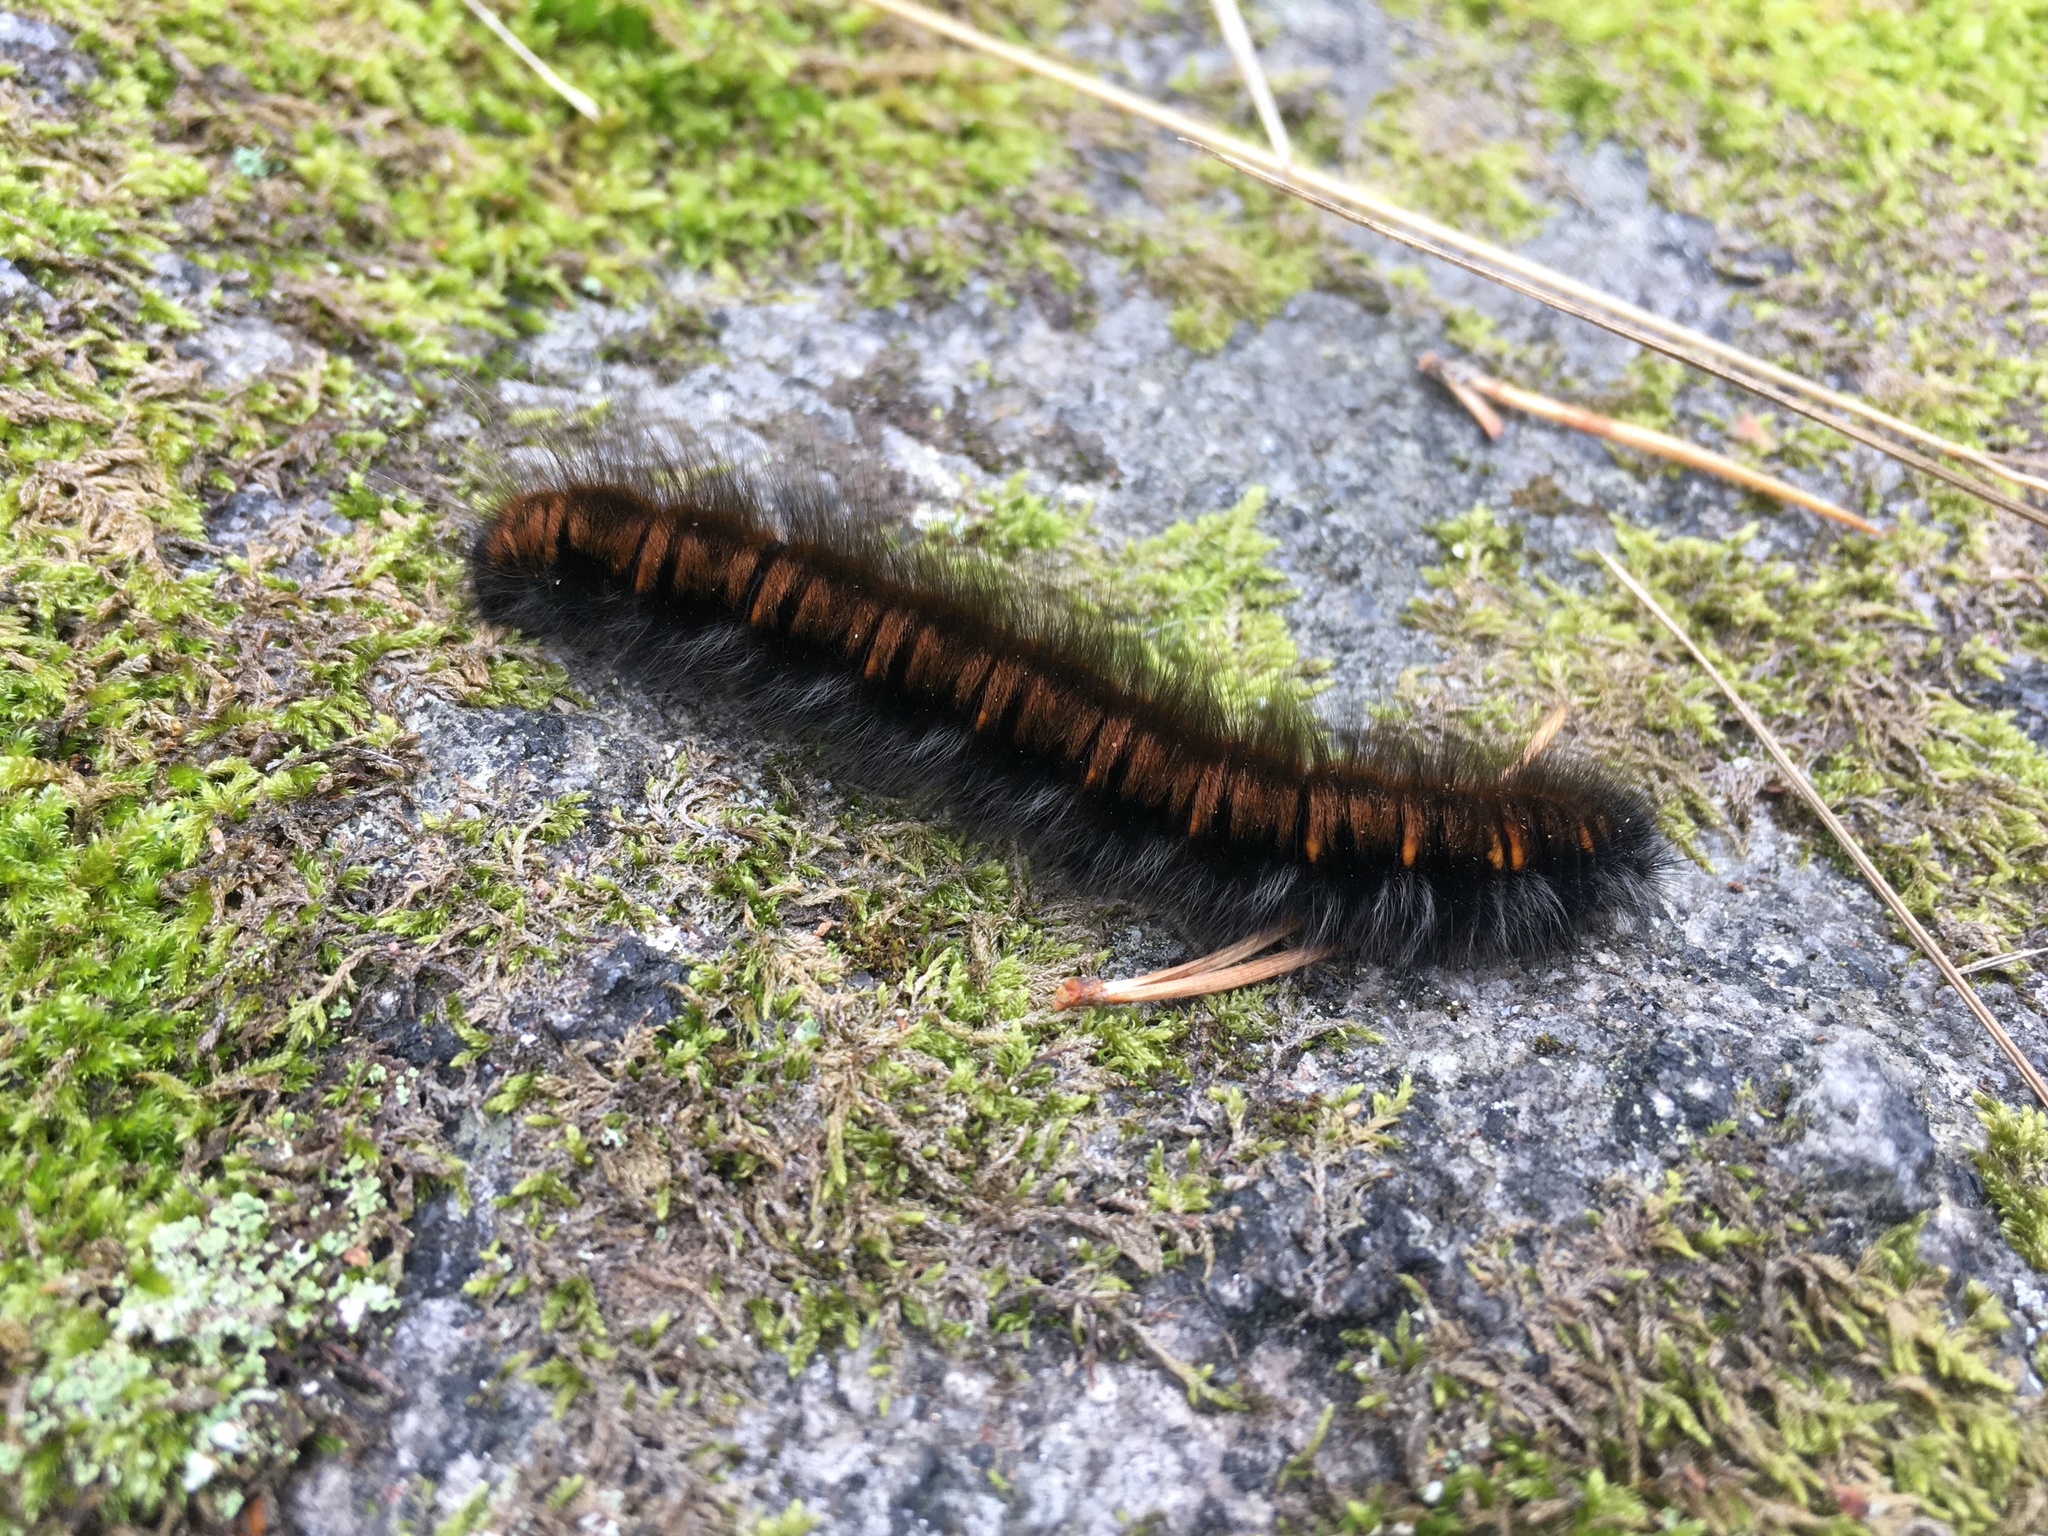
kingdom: Animalia
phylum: Arthropoda
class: Insecta
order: Lepidoptera
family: Lasiocampidae
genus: Macrothylacia
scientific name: Macrothylacia rubi
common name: Fox moth
